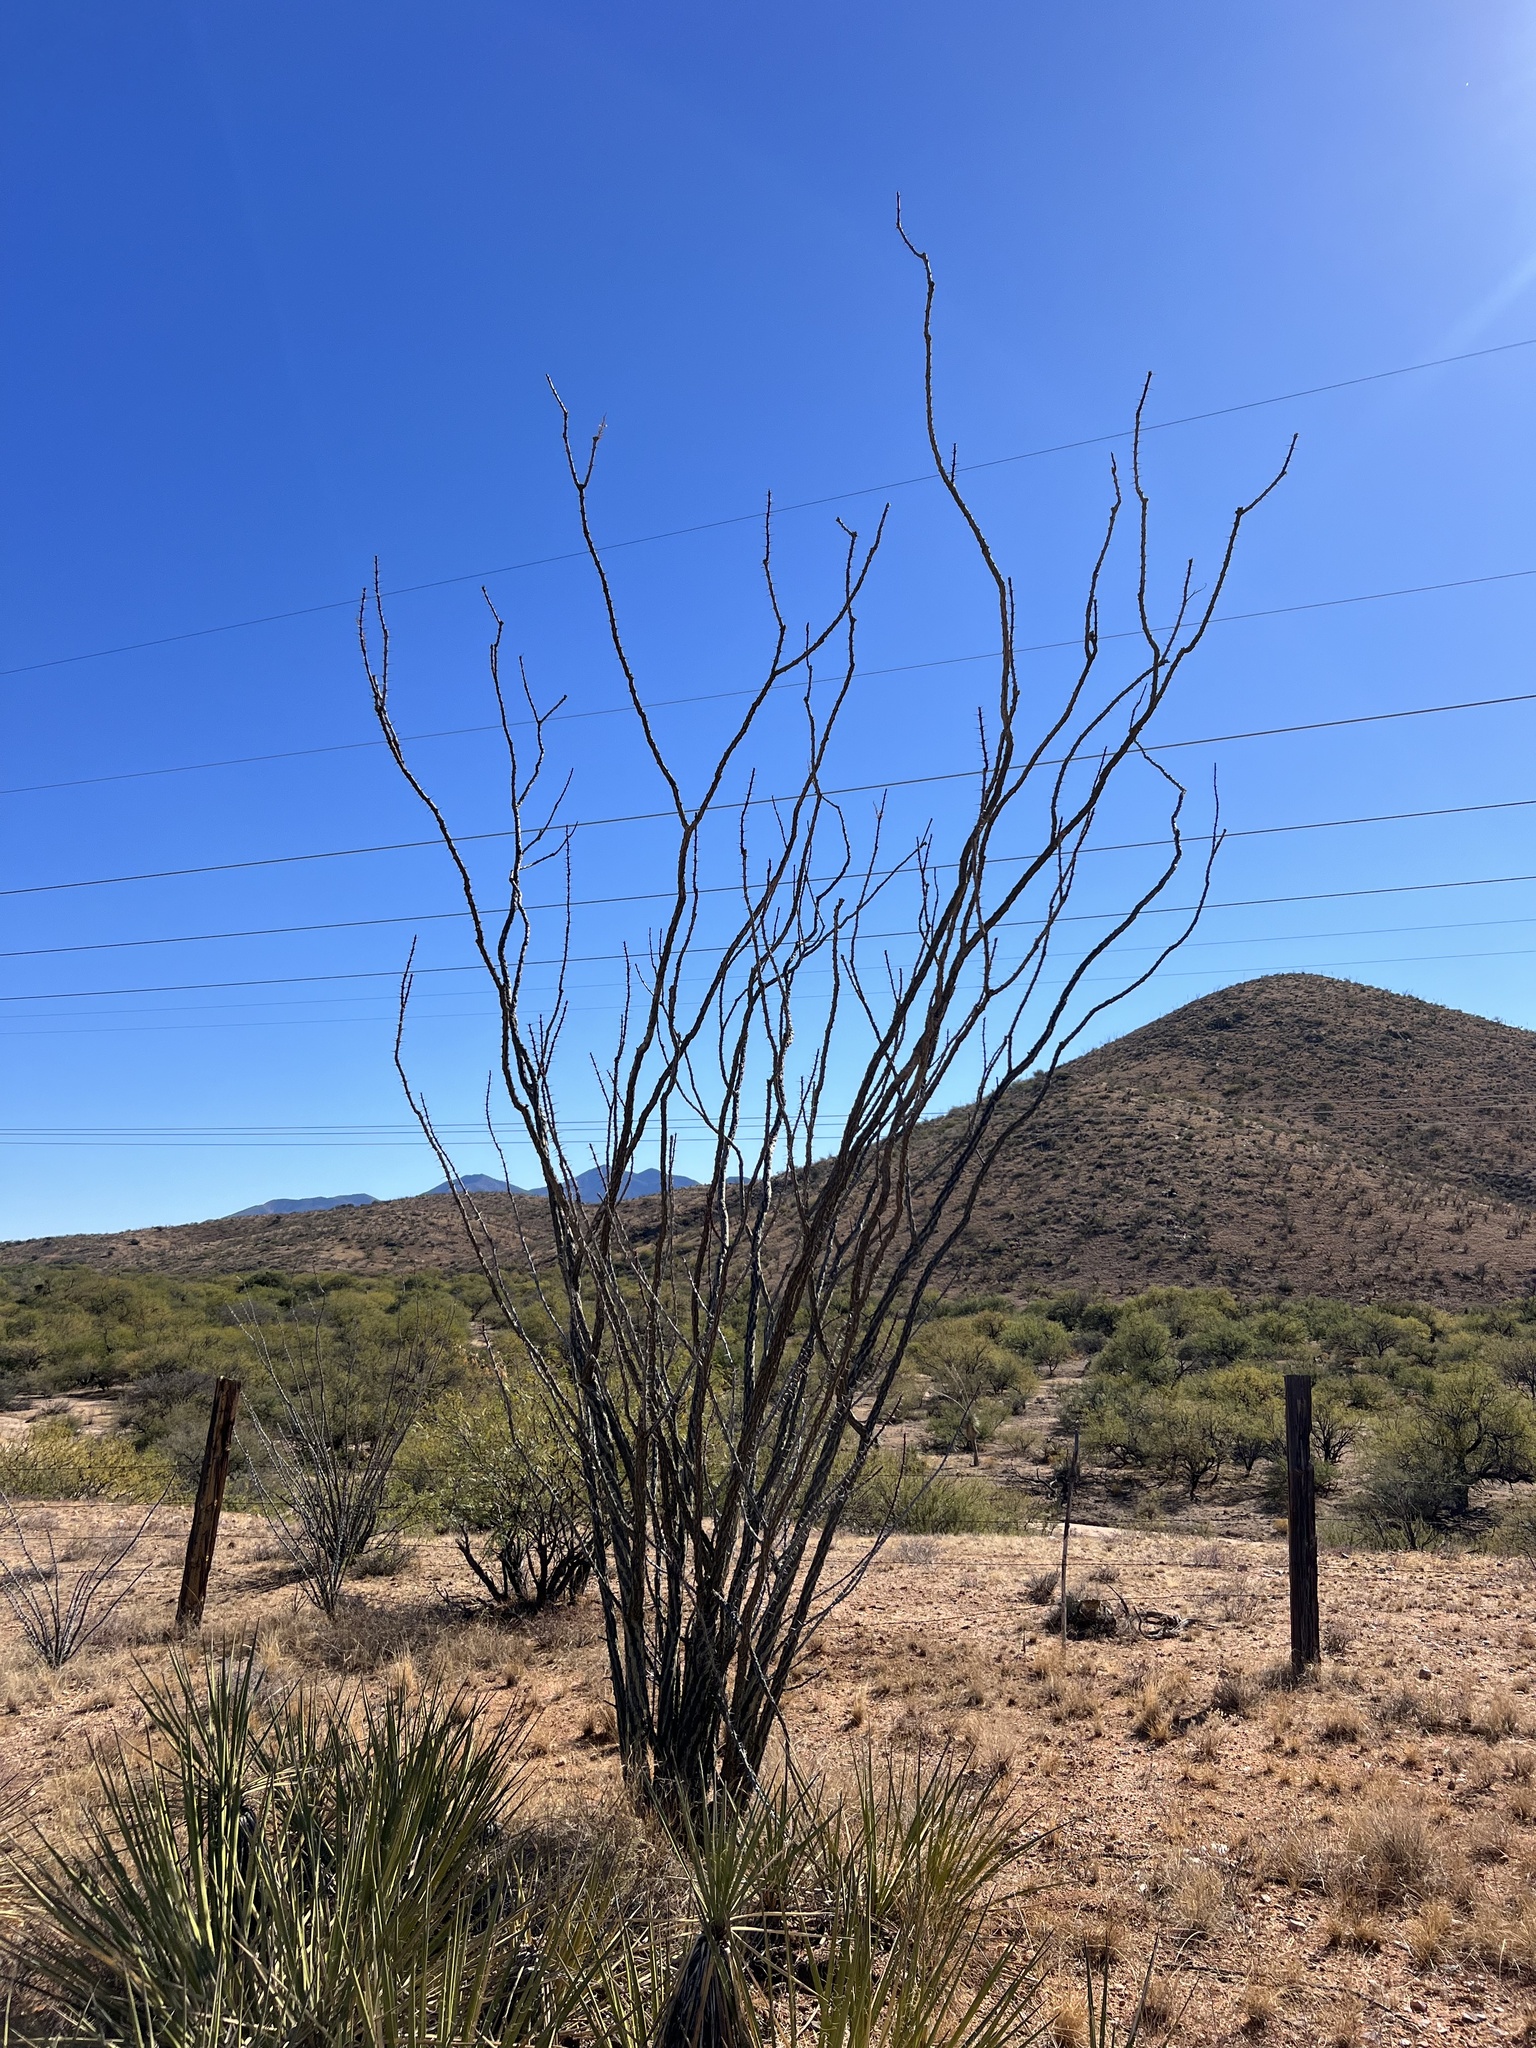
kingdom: Plantae
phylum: Tracheophyta
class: Magnoliopsida
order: Ericales
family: Fouquieriaceae
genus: Fouquieria
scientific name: Fouquieria splendens
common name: Vine-cactus
